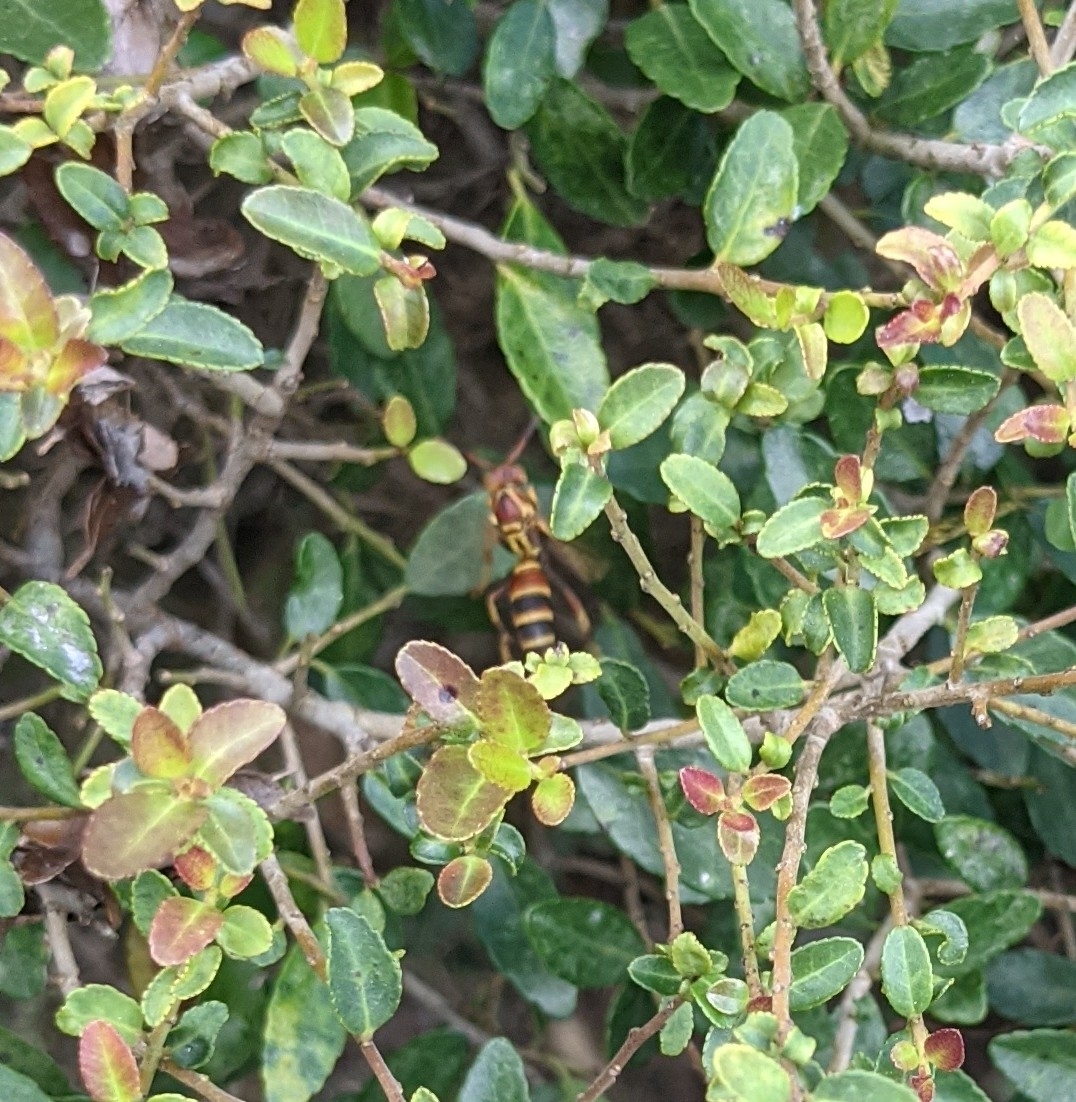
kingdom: Animalia
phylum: Arthropoda
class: Insecta
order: Hymenoptera
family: Eumenidae
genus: Polistes
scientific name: Polistes
